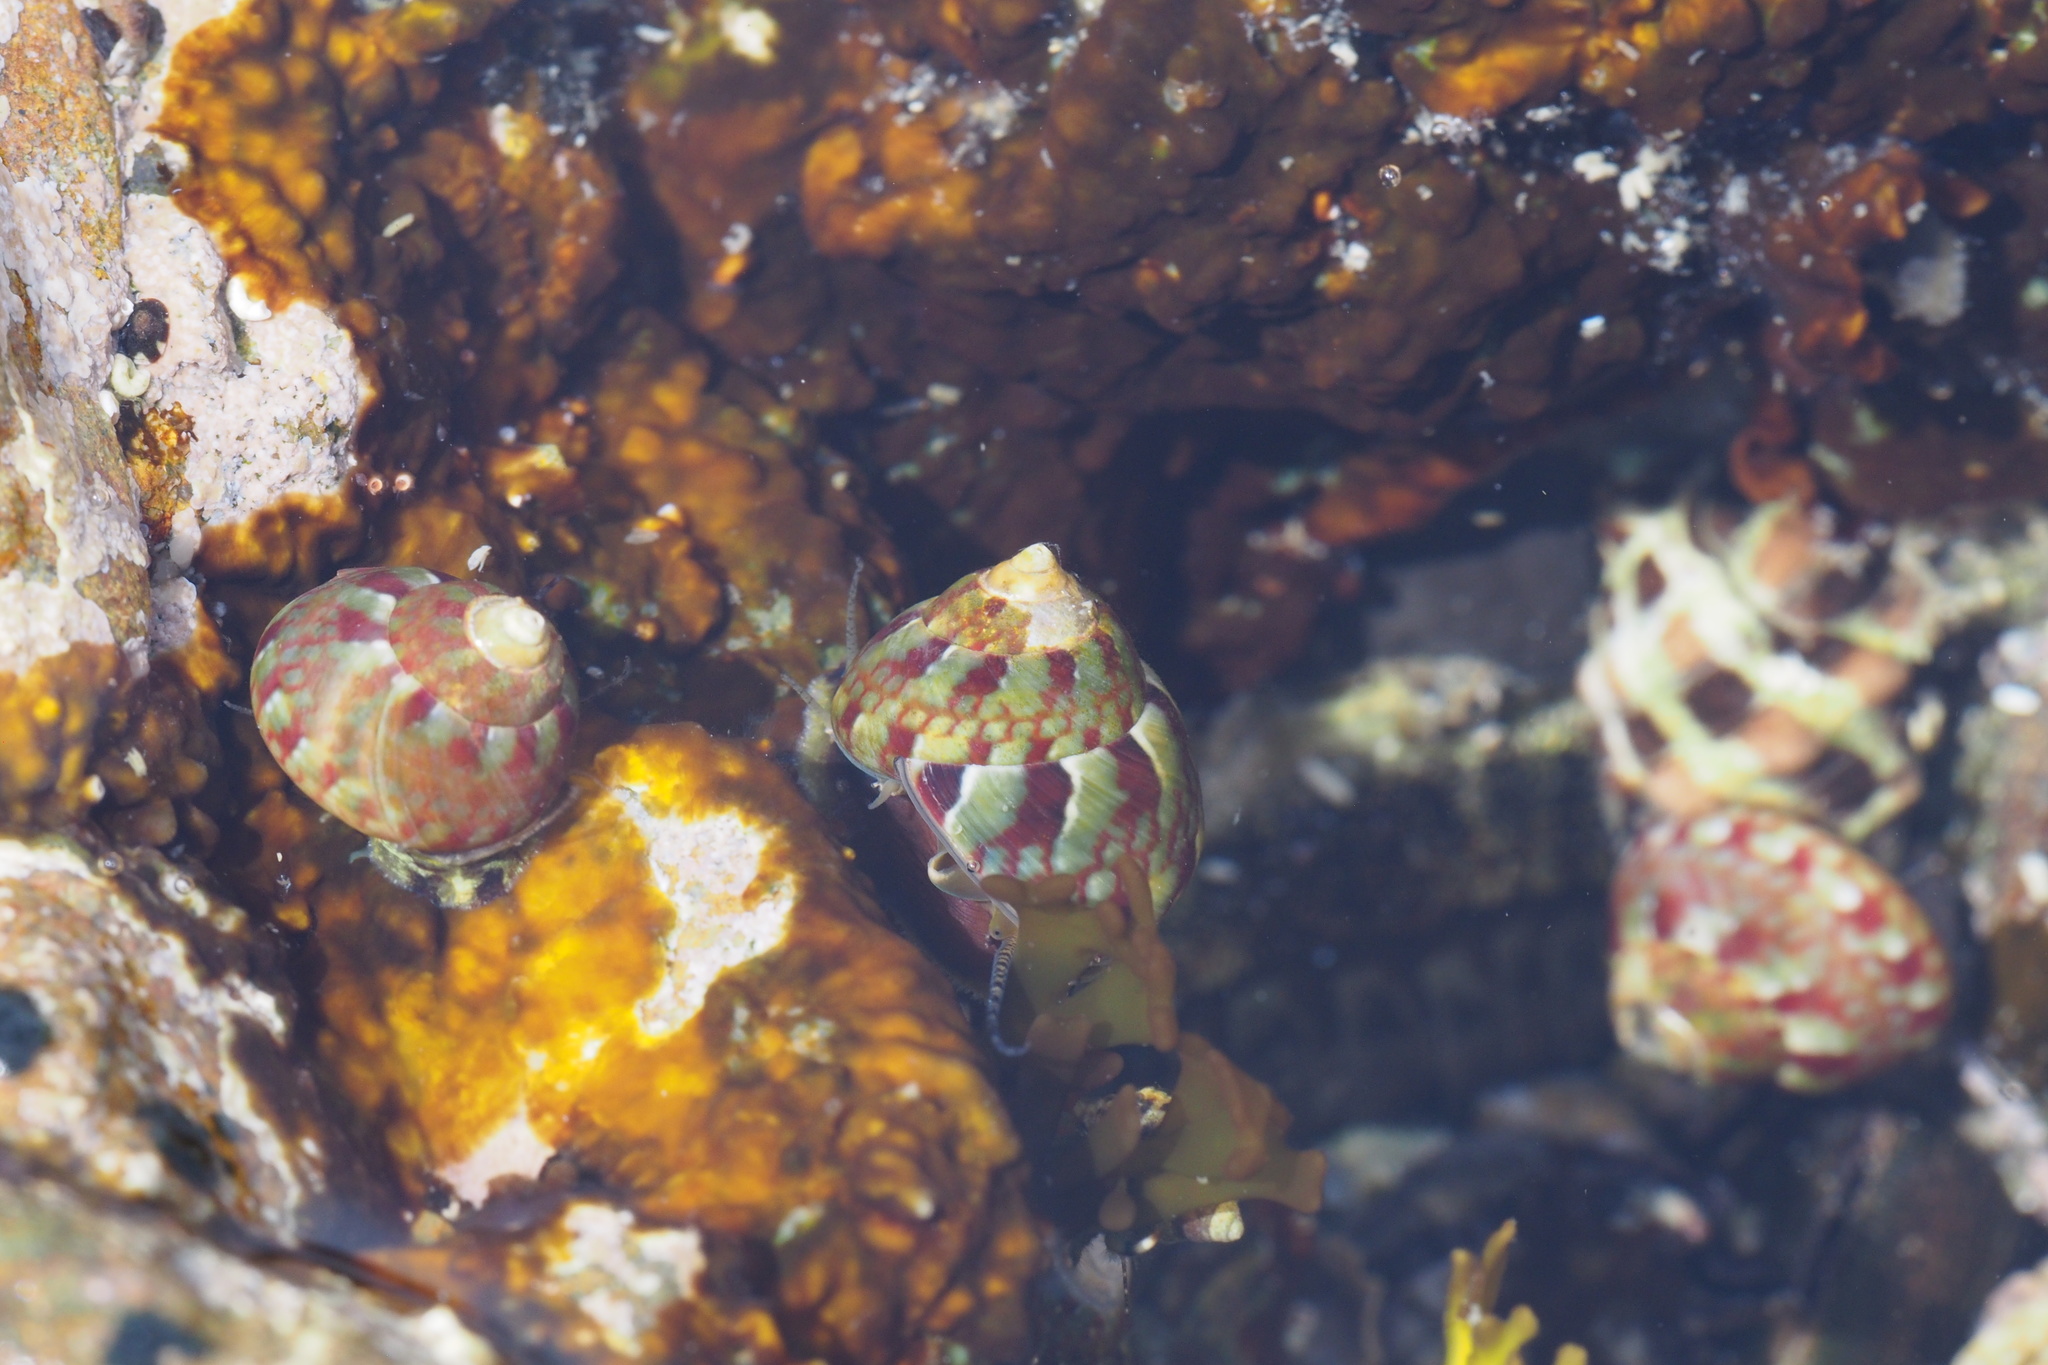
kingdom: Animalia
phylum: Mollusca
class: Gastropoda
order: Trochida
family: Trochidae
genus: Pictodiloma
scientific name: Pictodiloma suavis
